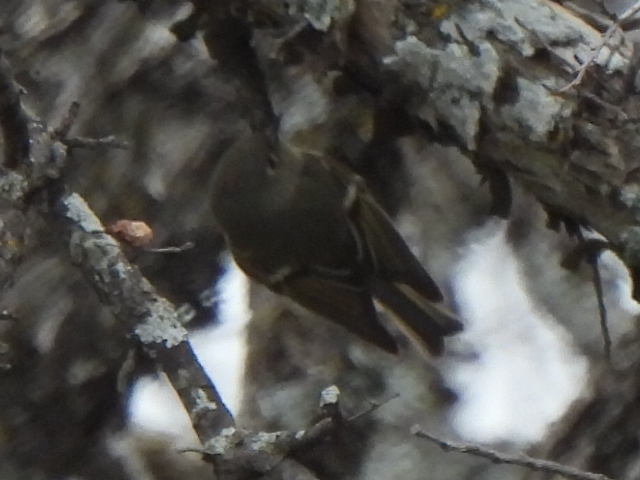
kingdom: Animalia
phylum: Chordata
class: Aves
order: Passeriformes
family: Regulidae
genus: Regulus
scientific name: Regulus calendula
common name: Ruby-crowned kinglet
